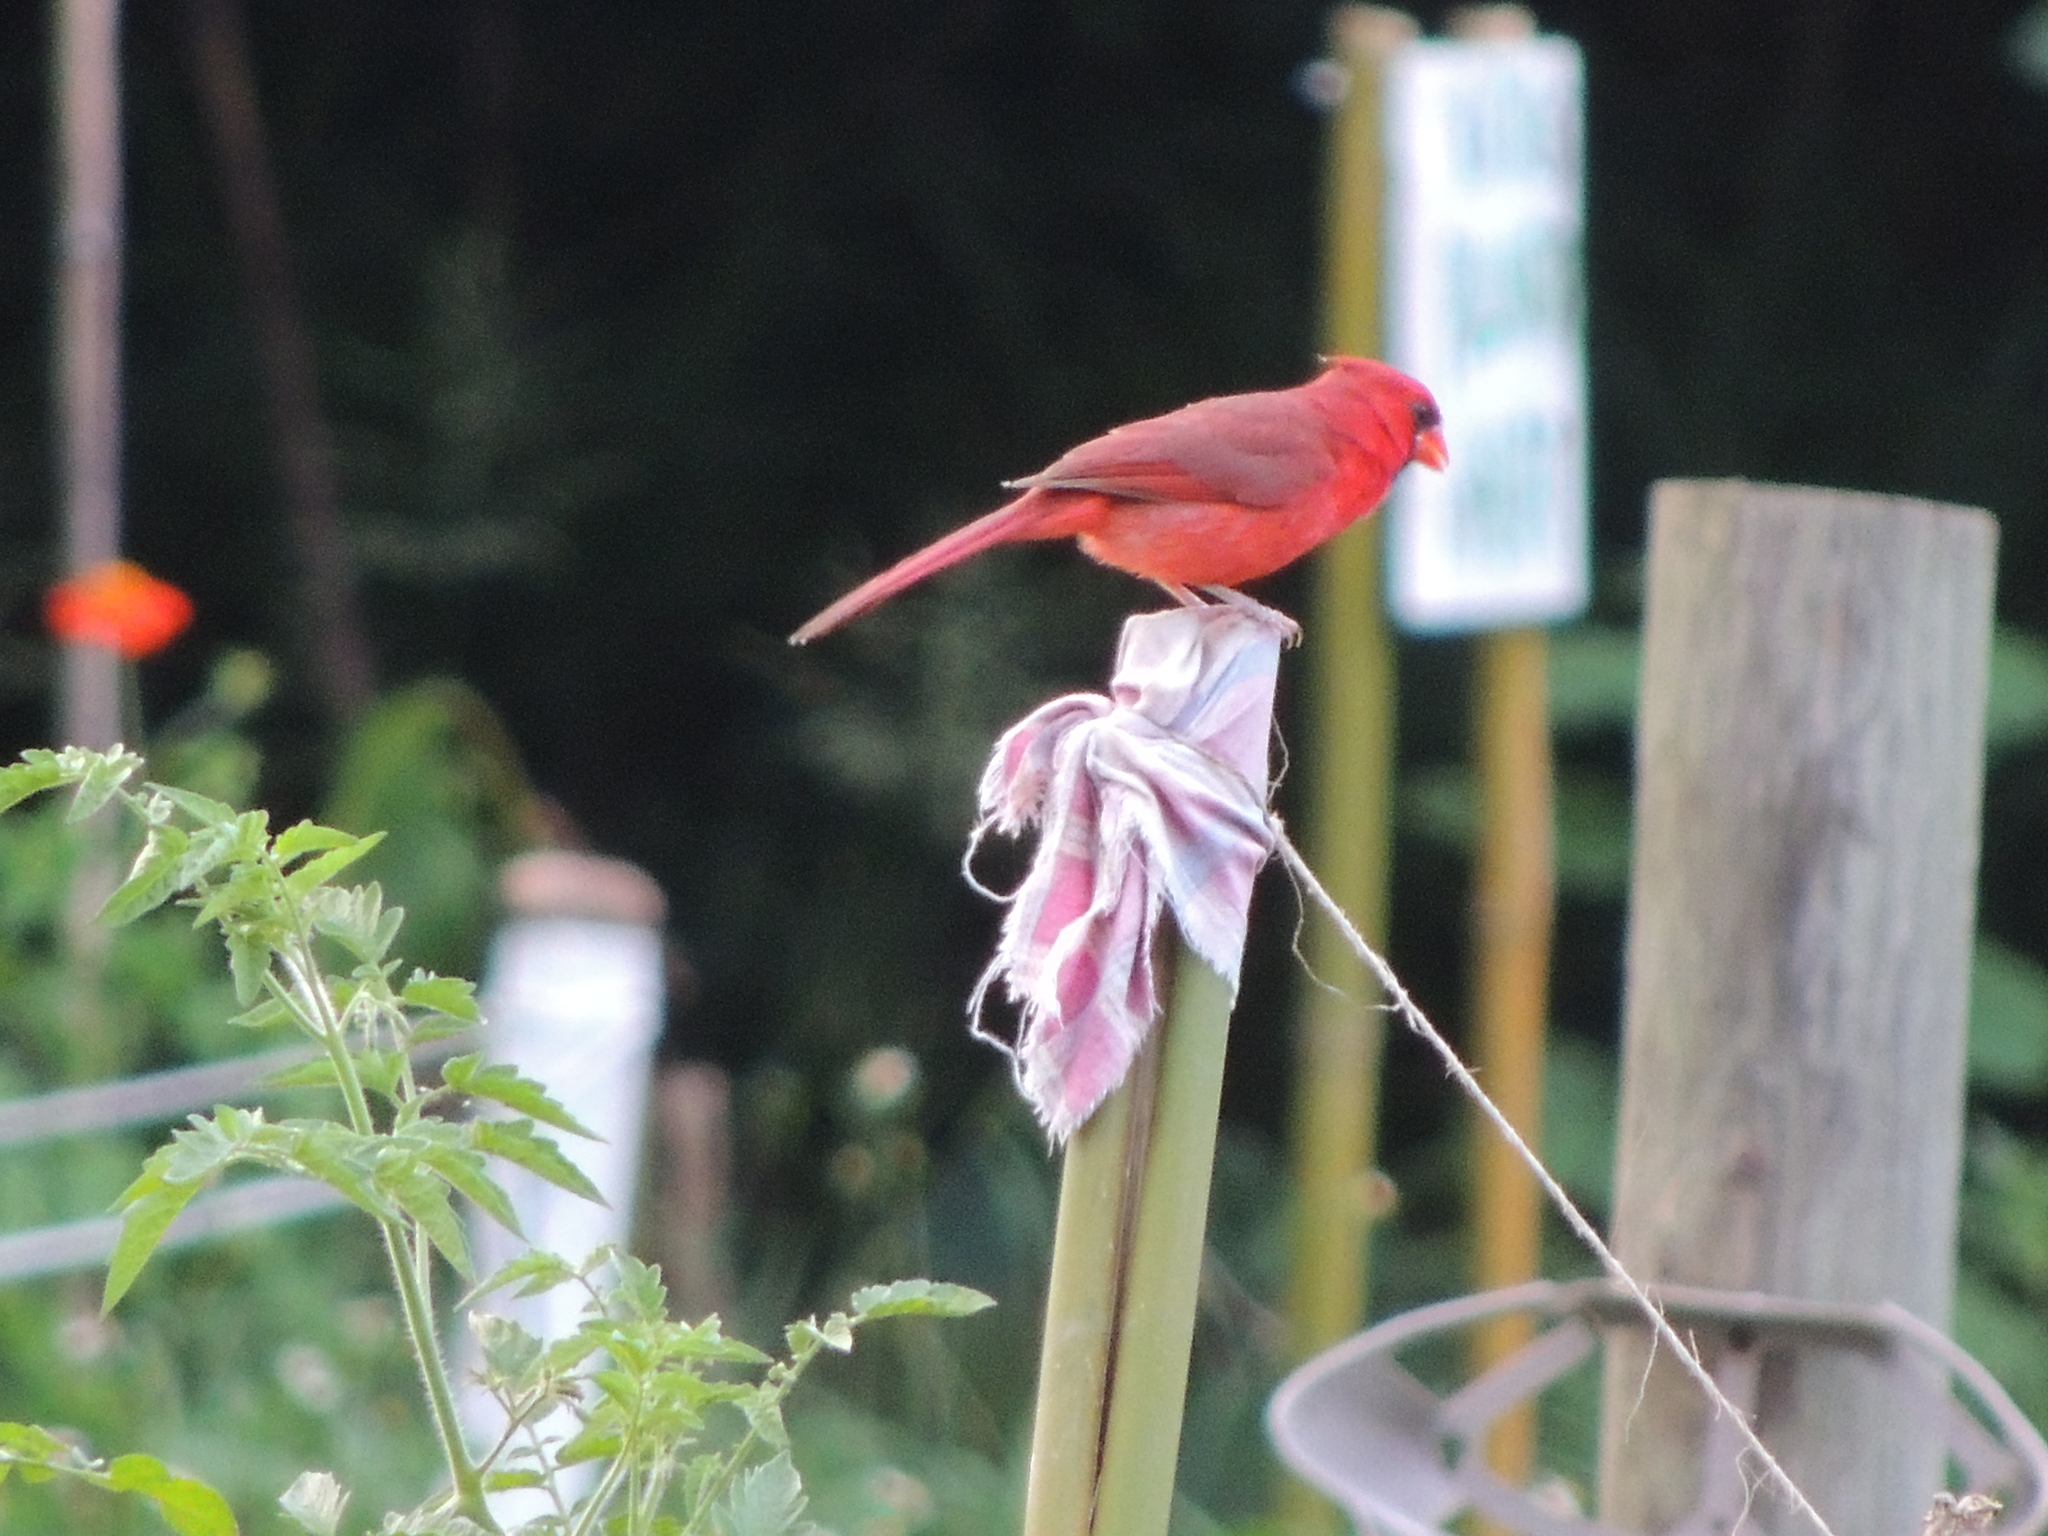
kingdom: Animalia
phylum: Chordata
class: Aves
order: Passeriformes
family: Cardinalidae
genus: Cardinalis
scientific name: Cardinalis cardinalis
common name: Northern cardinal
